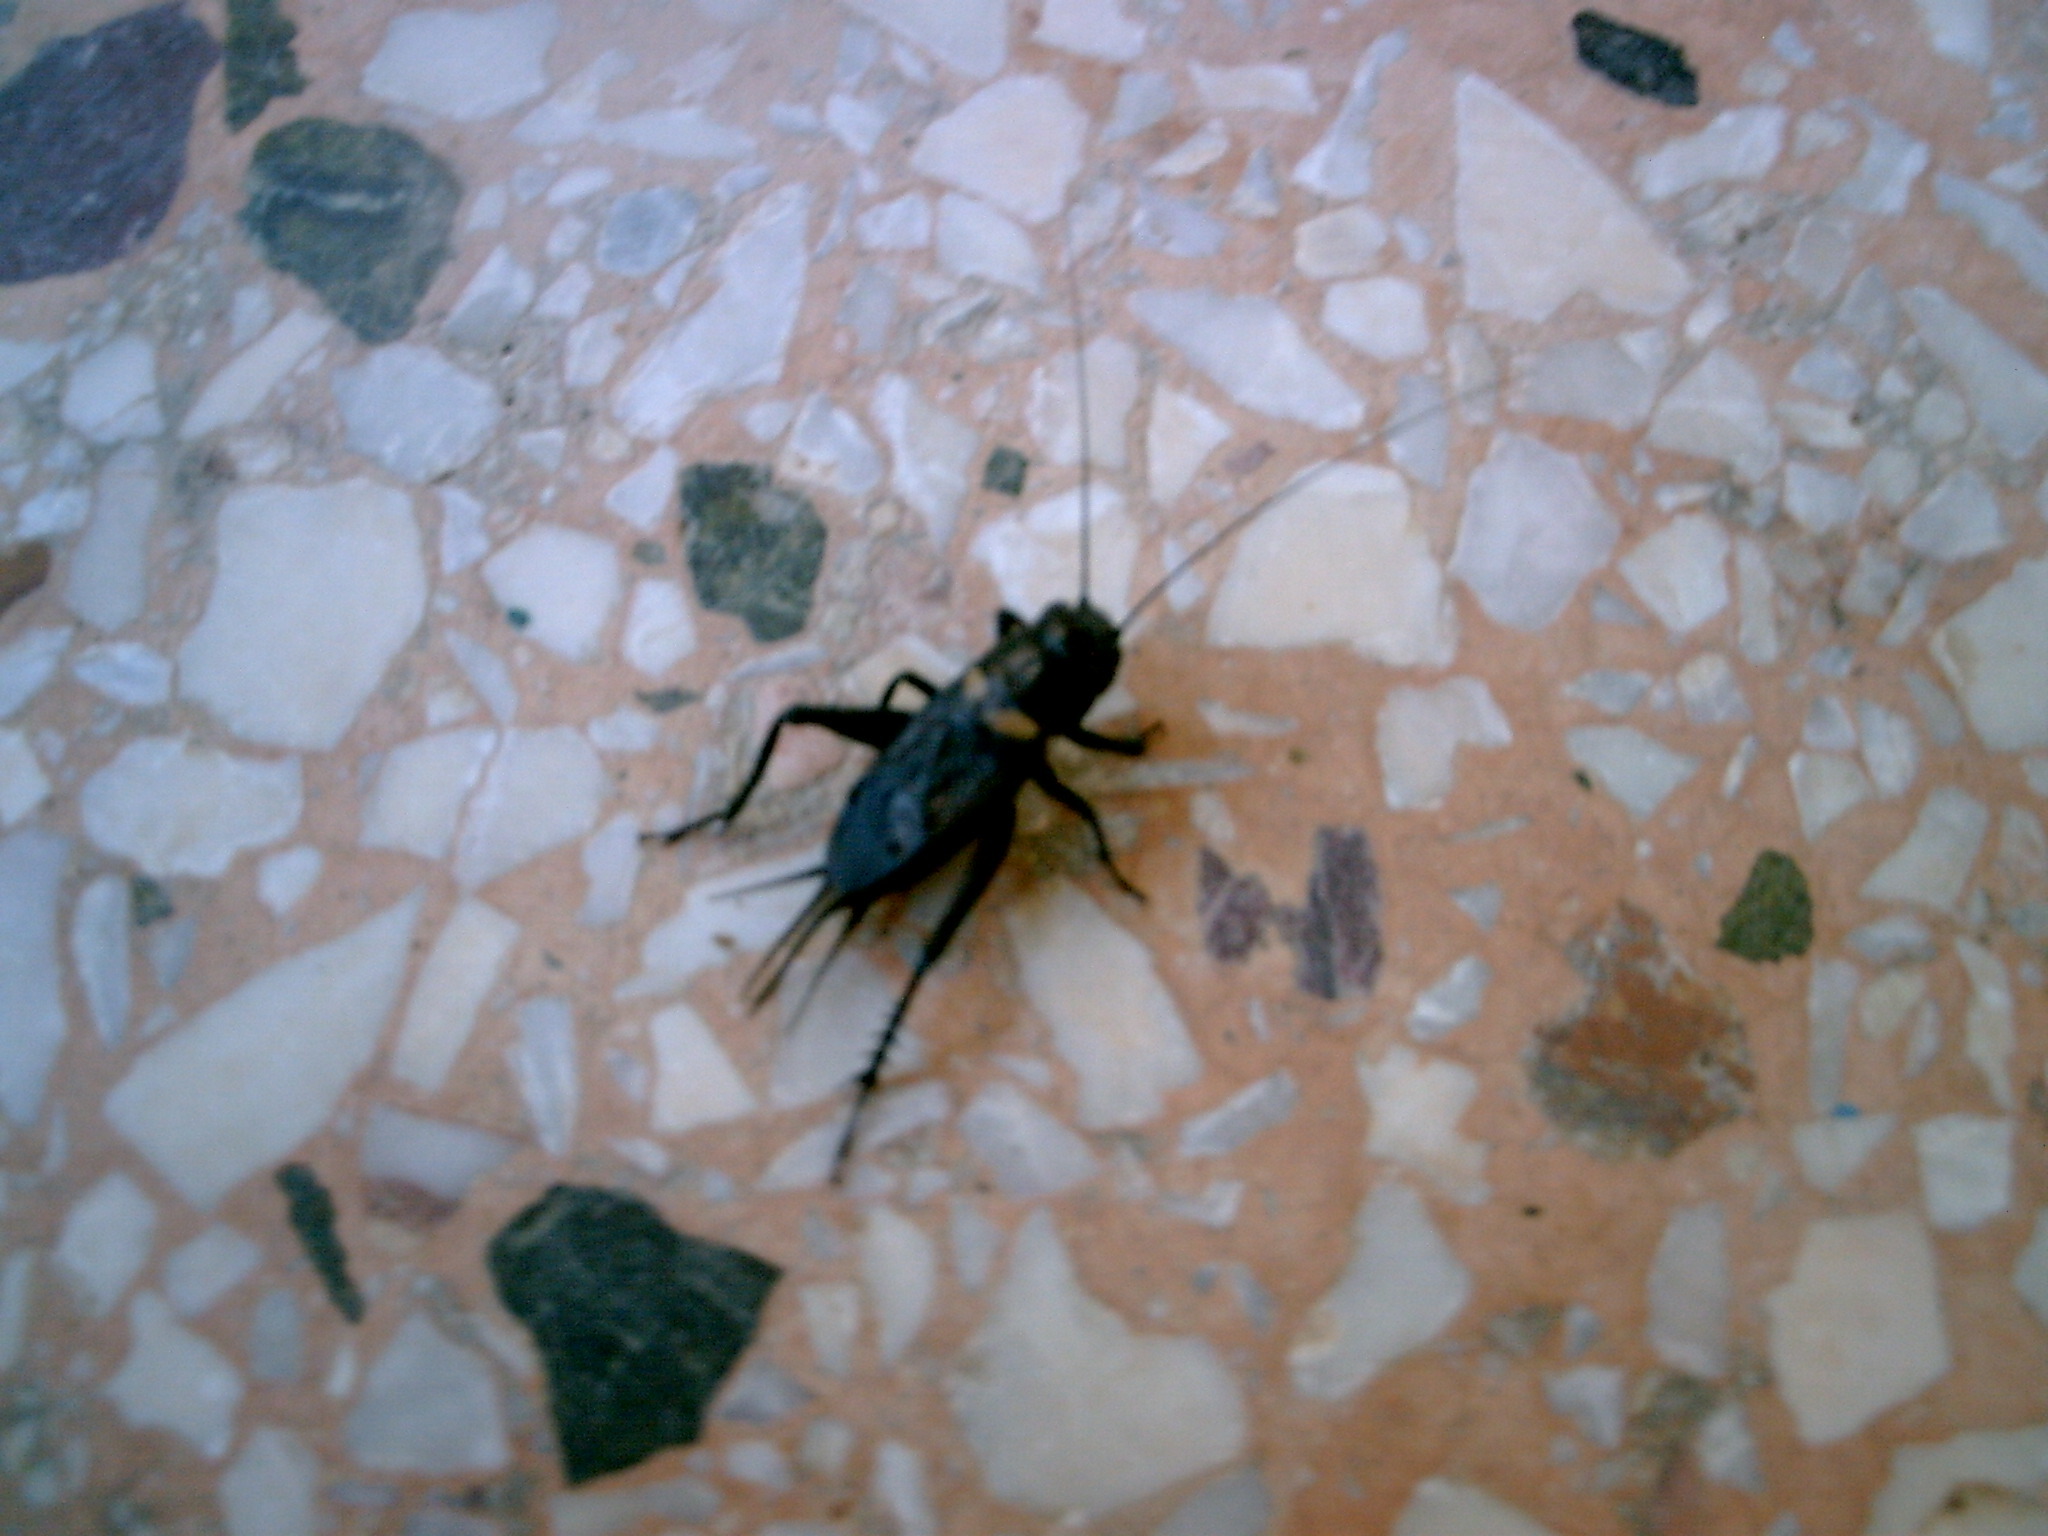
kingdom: Animalia
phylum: Arthropoda
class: Insecta
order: Orthoptera
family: Gryllidae
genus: Gryllus
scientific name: Gryllus bimaculatus
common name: Two-spotted cricket
